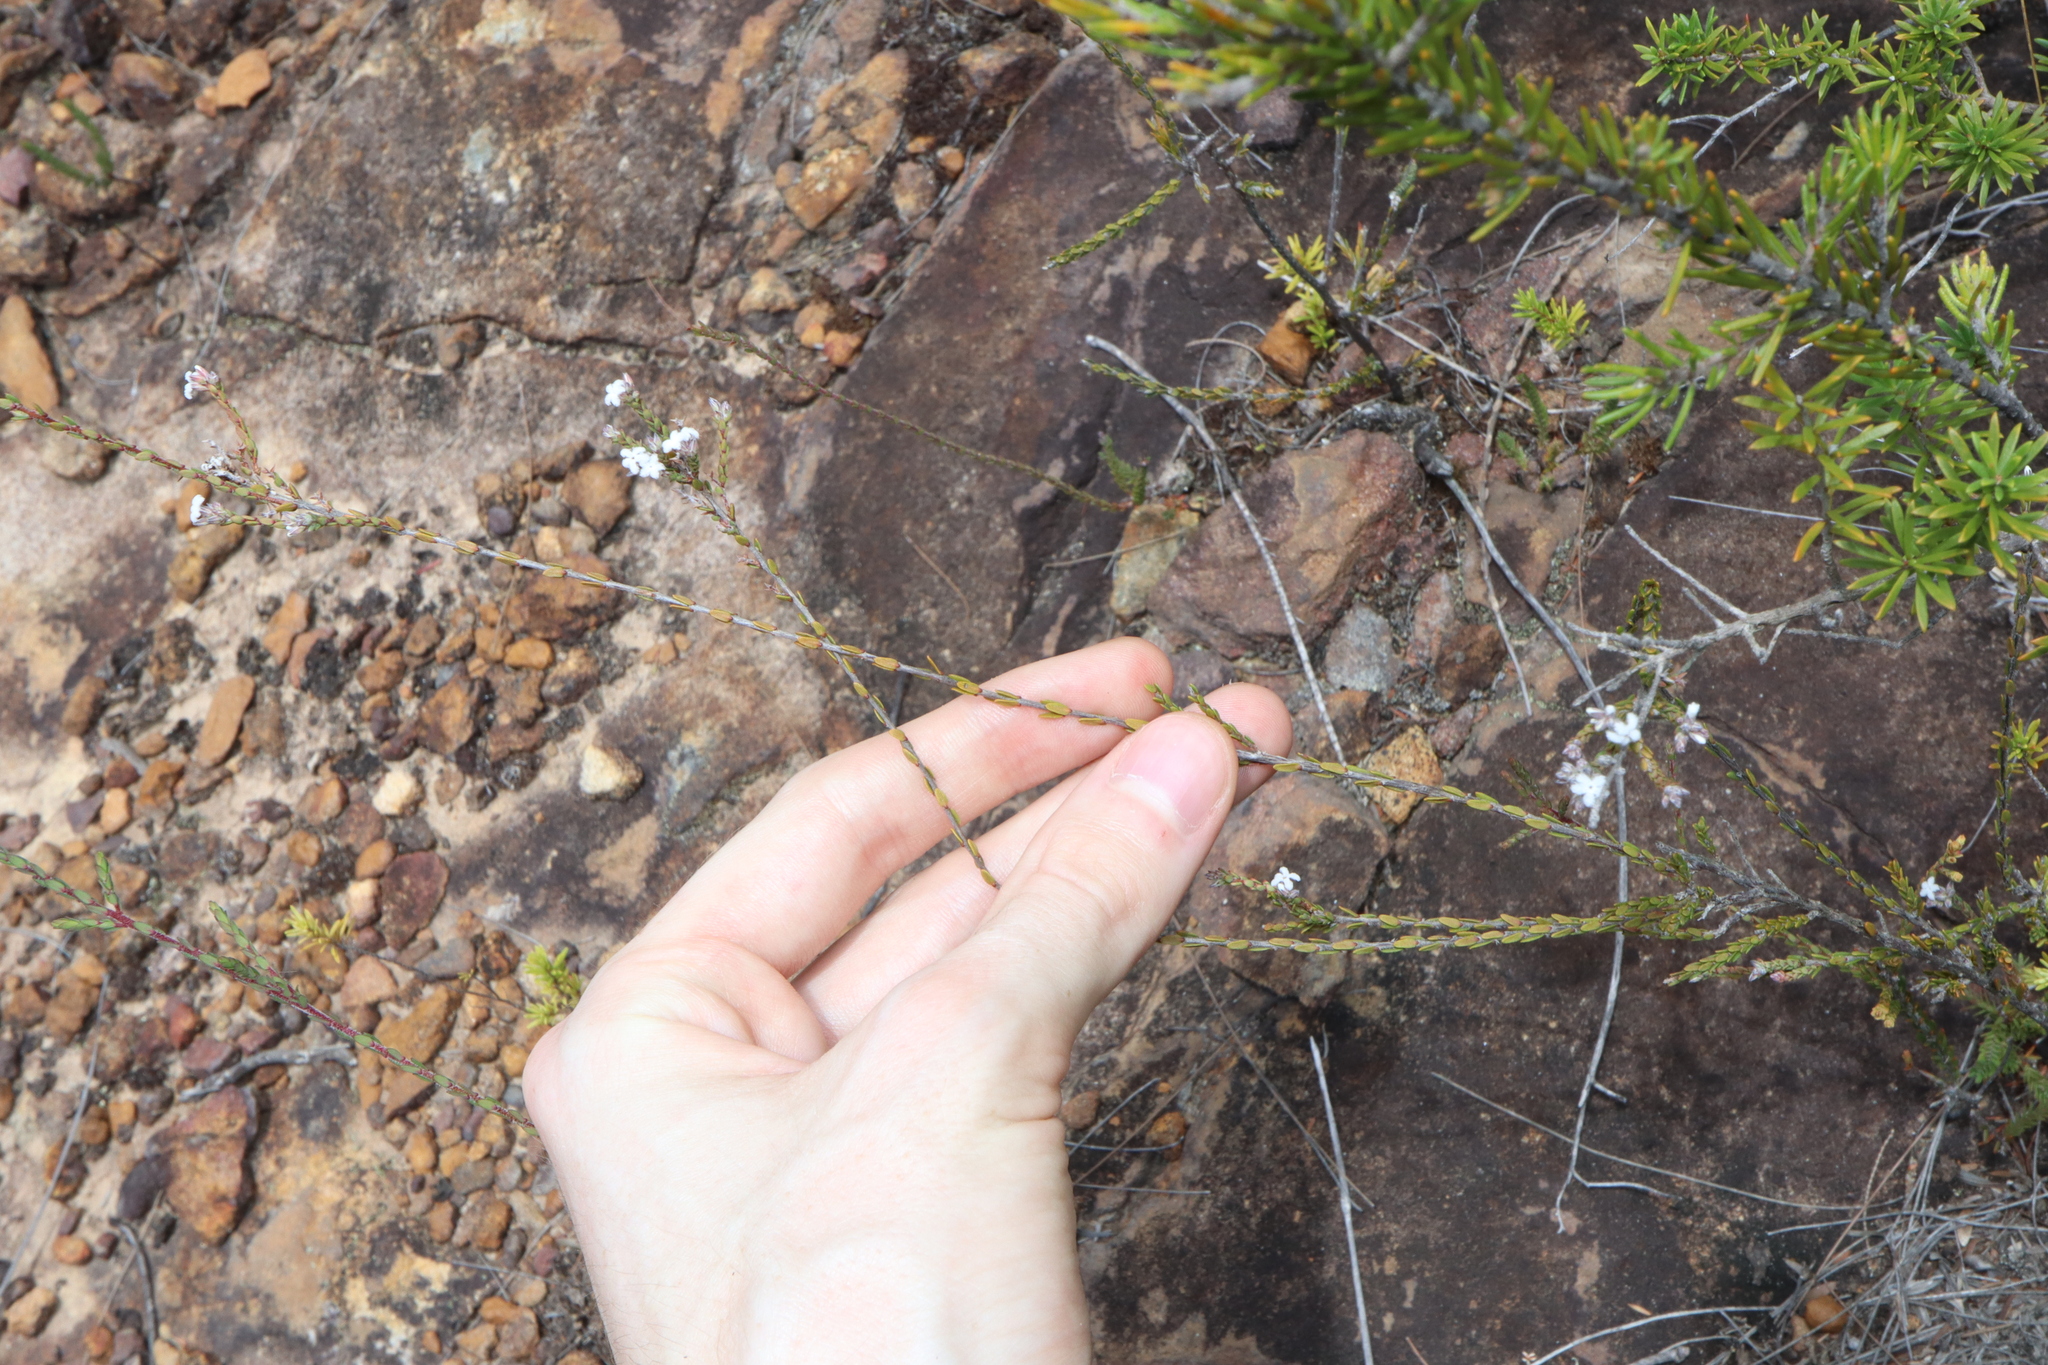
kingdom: Plantae
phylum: Tracheophyta
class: Magnoliopsida
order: Ericales
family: Ericaceae
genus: Leucopogon
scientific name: Leucopogon microphyllus
